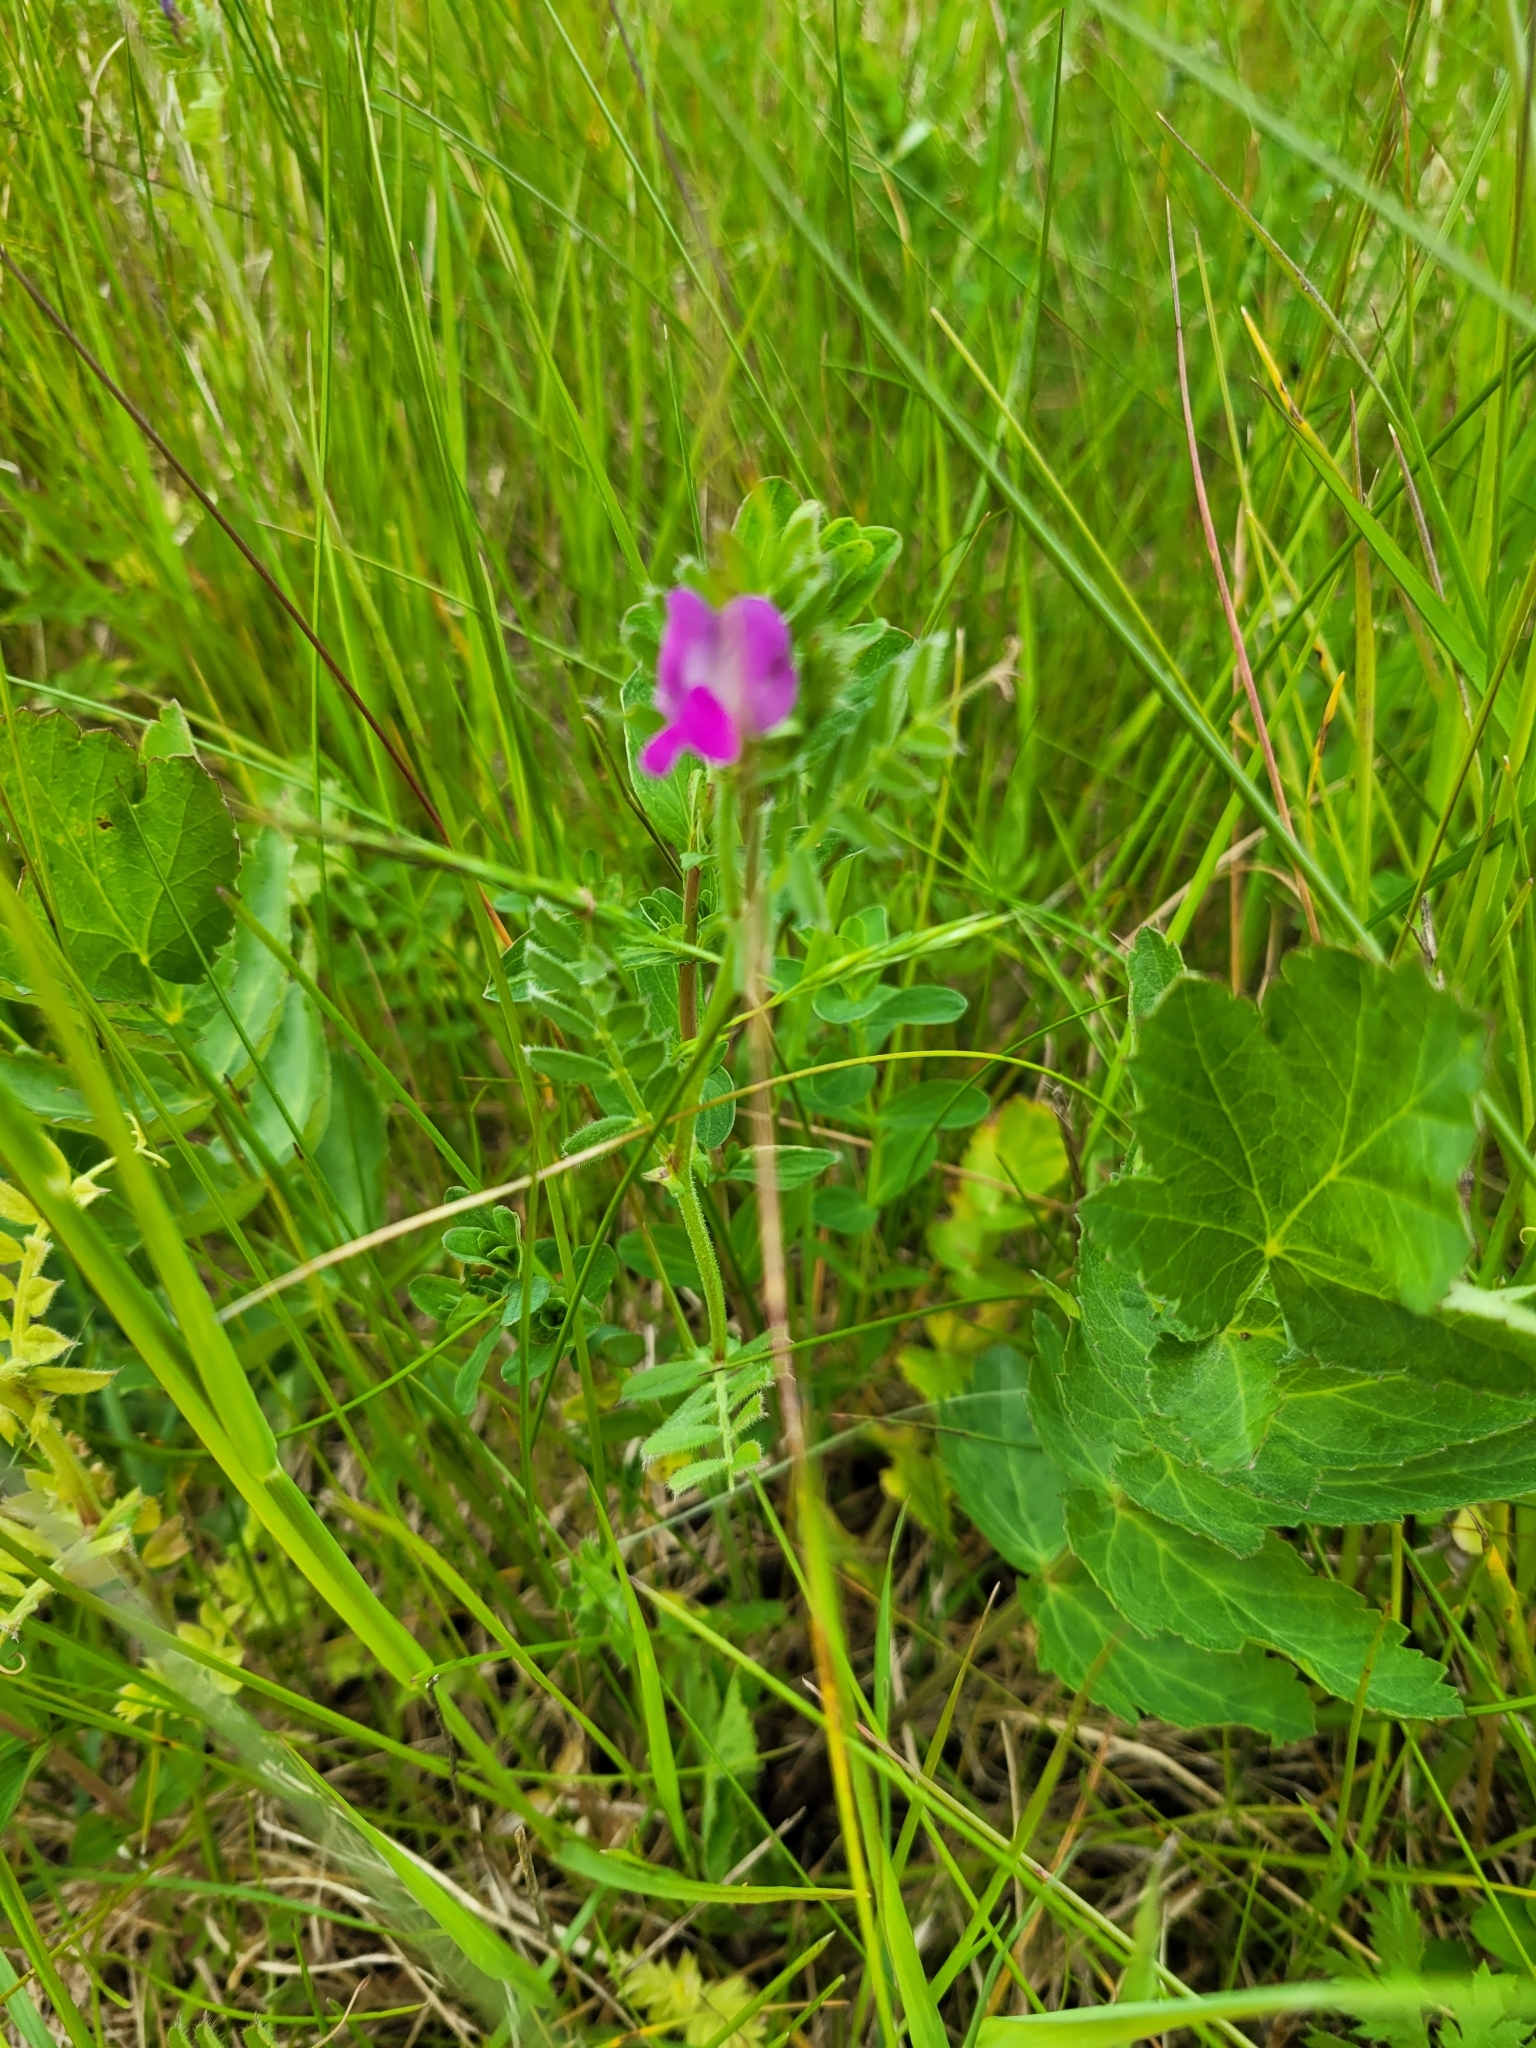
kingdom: Plantae
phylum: Tracheophyta
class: Magnoliopsida
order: Fabales
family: Fabaceae
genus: Vicia
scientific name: Vicia sativa
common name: Garden vetch
